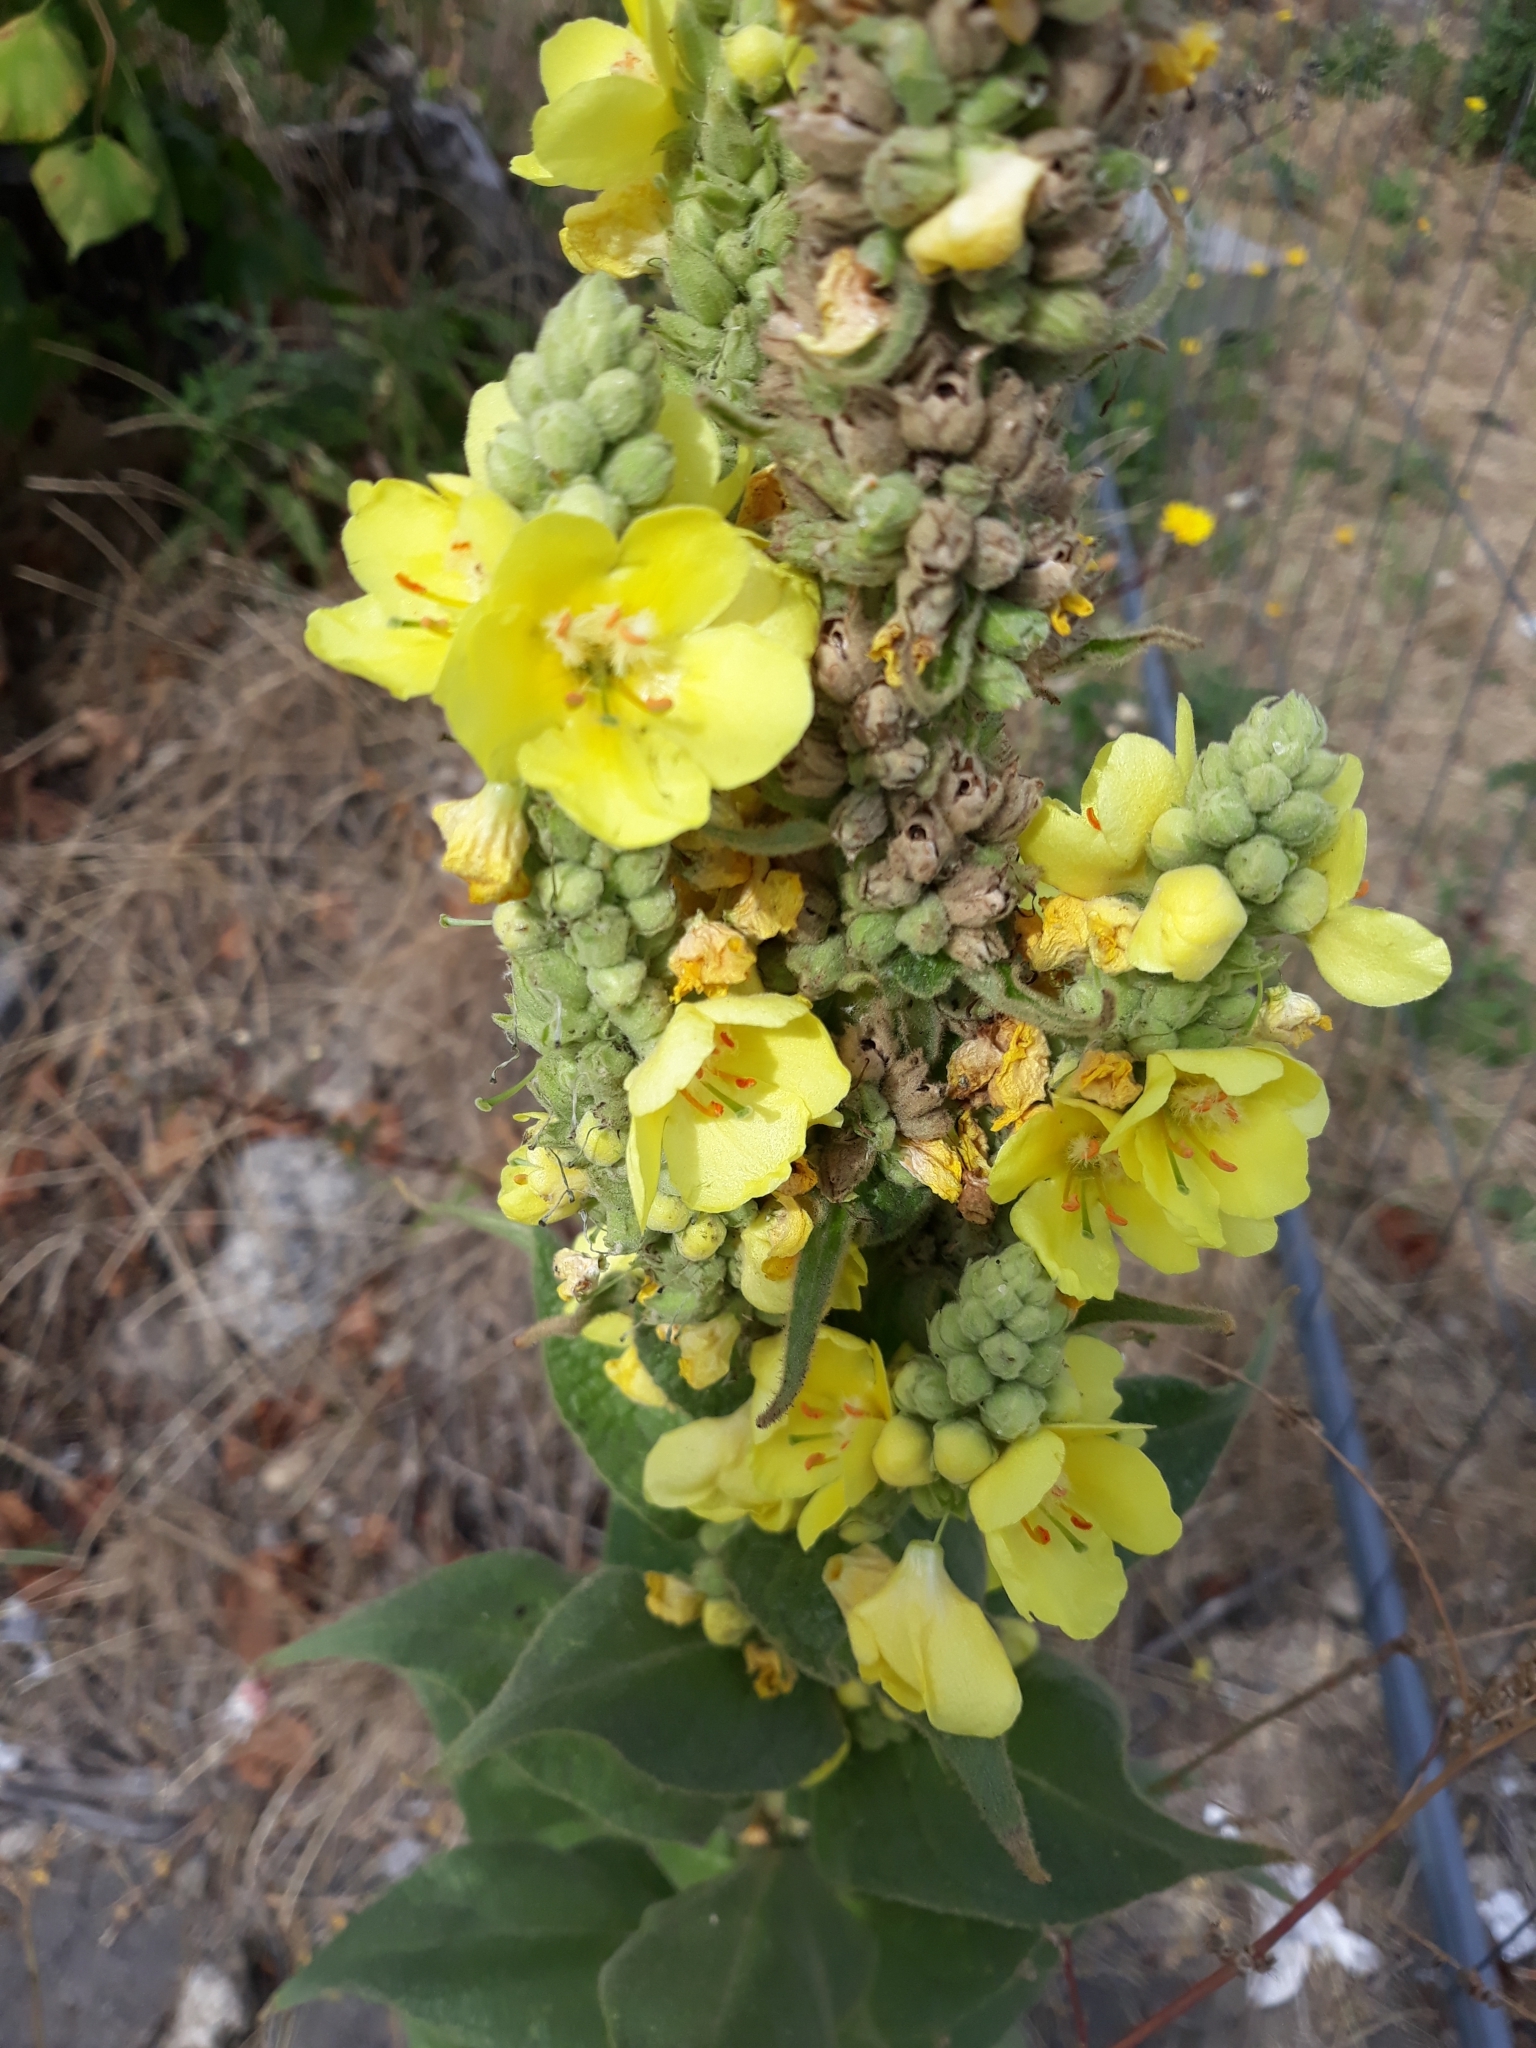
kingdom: Plantae
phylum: Tracheophyta
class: Magnoliopsida
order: Lamiales
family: Scrophulariaceae
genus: Verbascum
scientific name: Verbascum thapsus
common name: Common mullein
